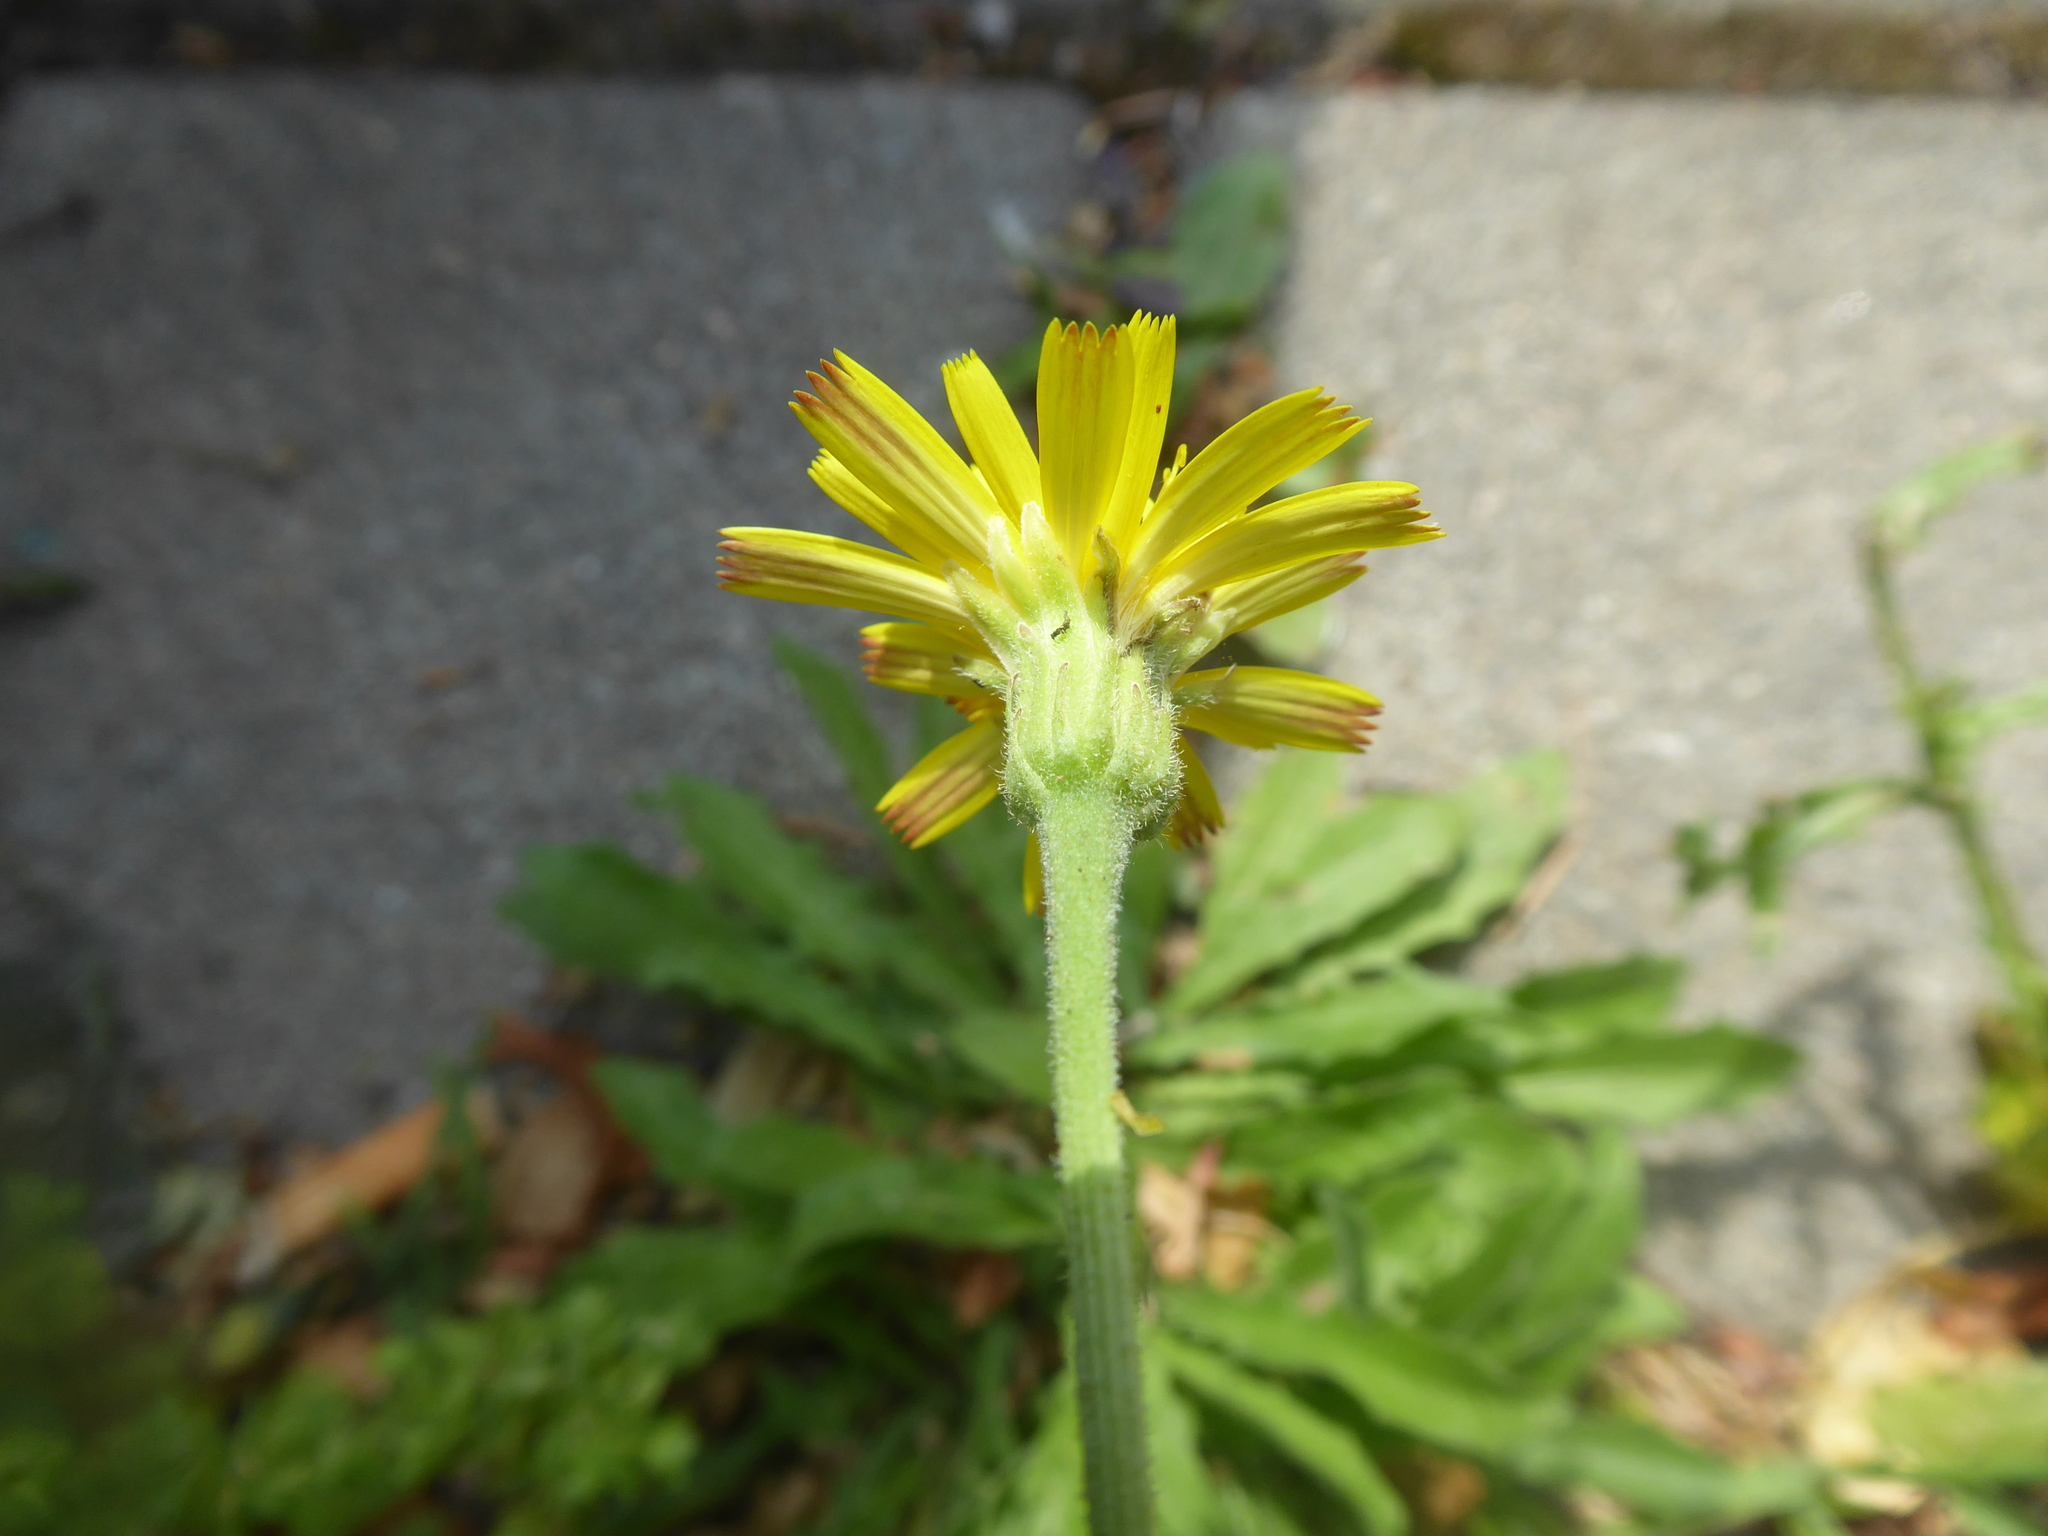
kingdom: Plantae
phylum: Tracheophyta
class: Magnoliopsida
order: Asterales
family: Asteraceae
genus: Leontodon
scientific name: Leontodon hispidus
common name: Rough hawkbit
